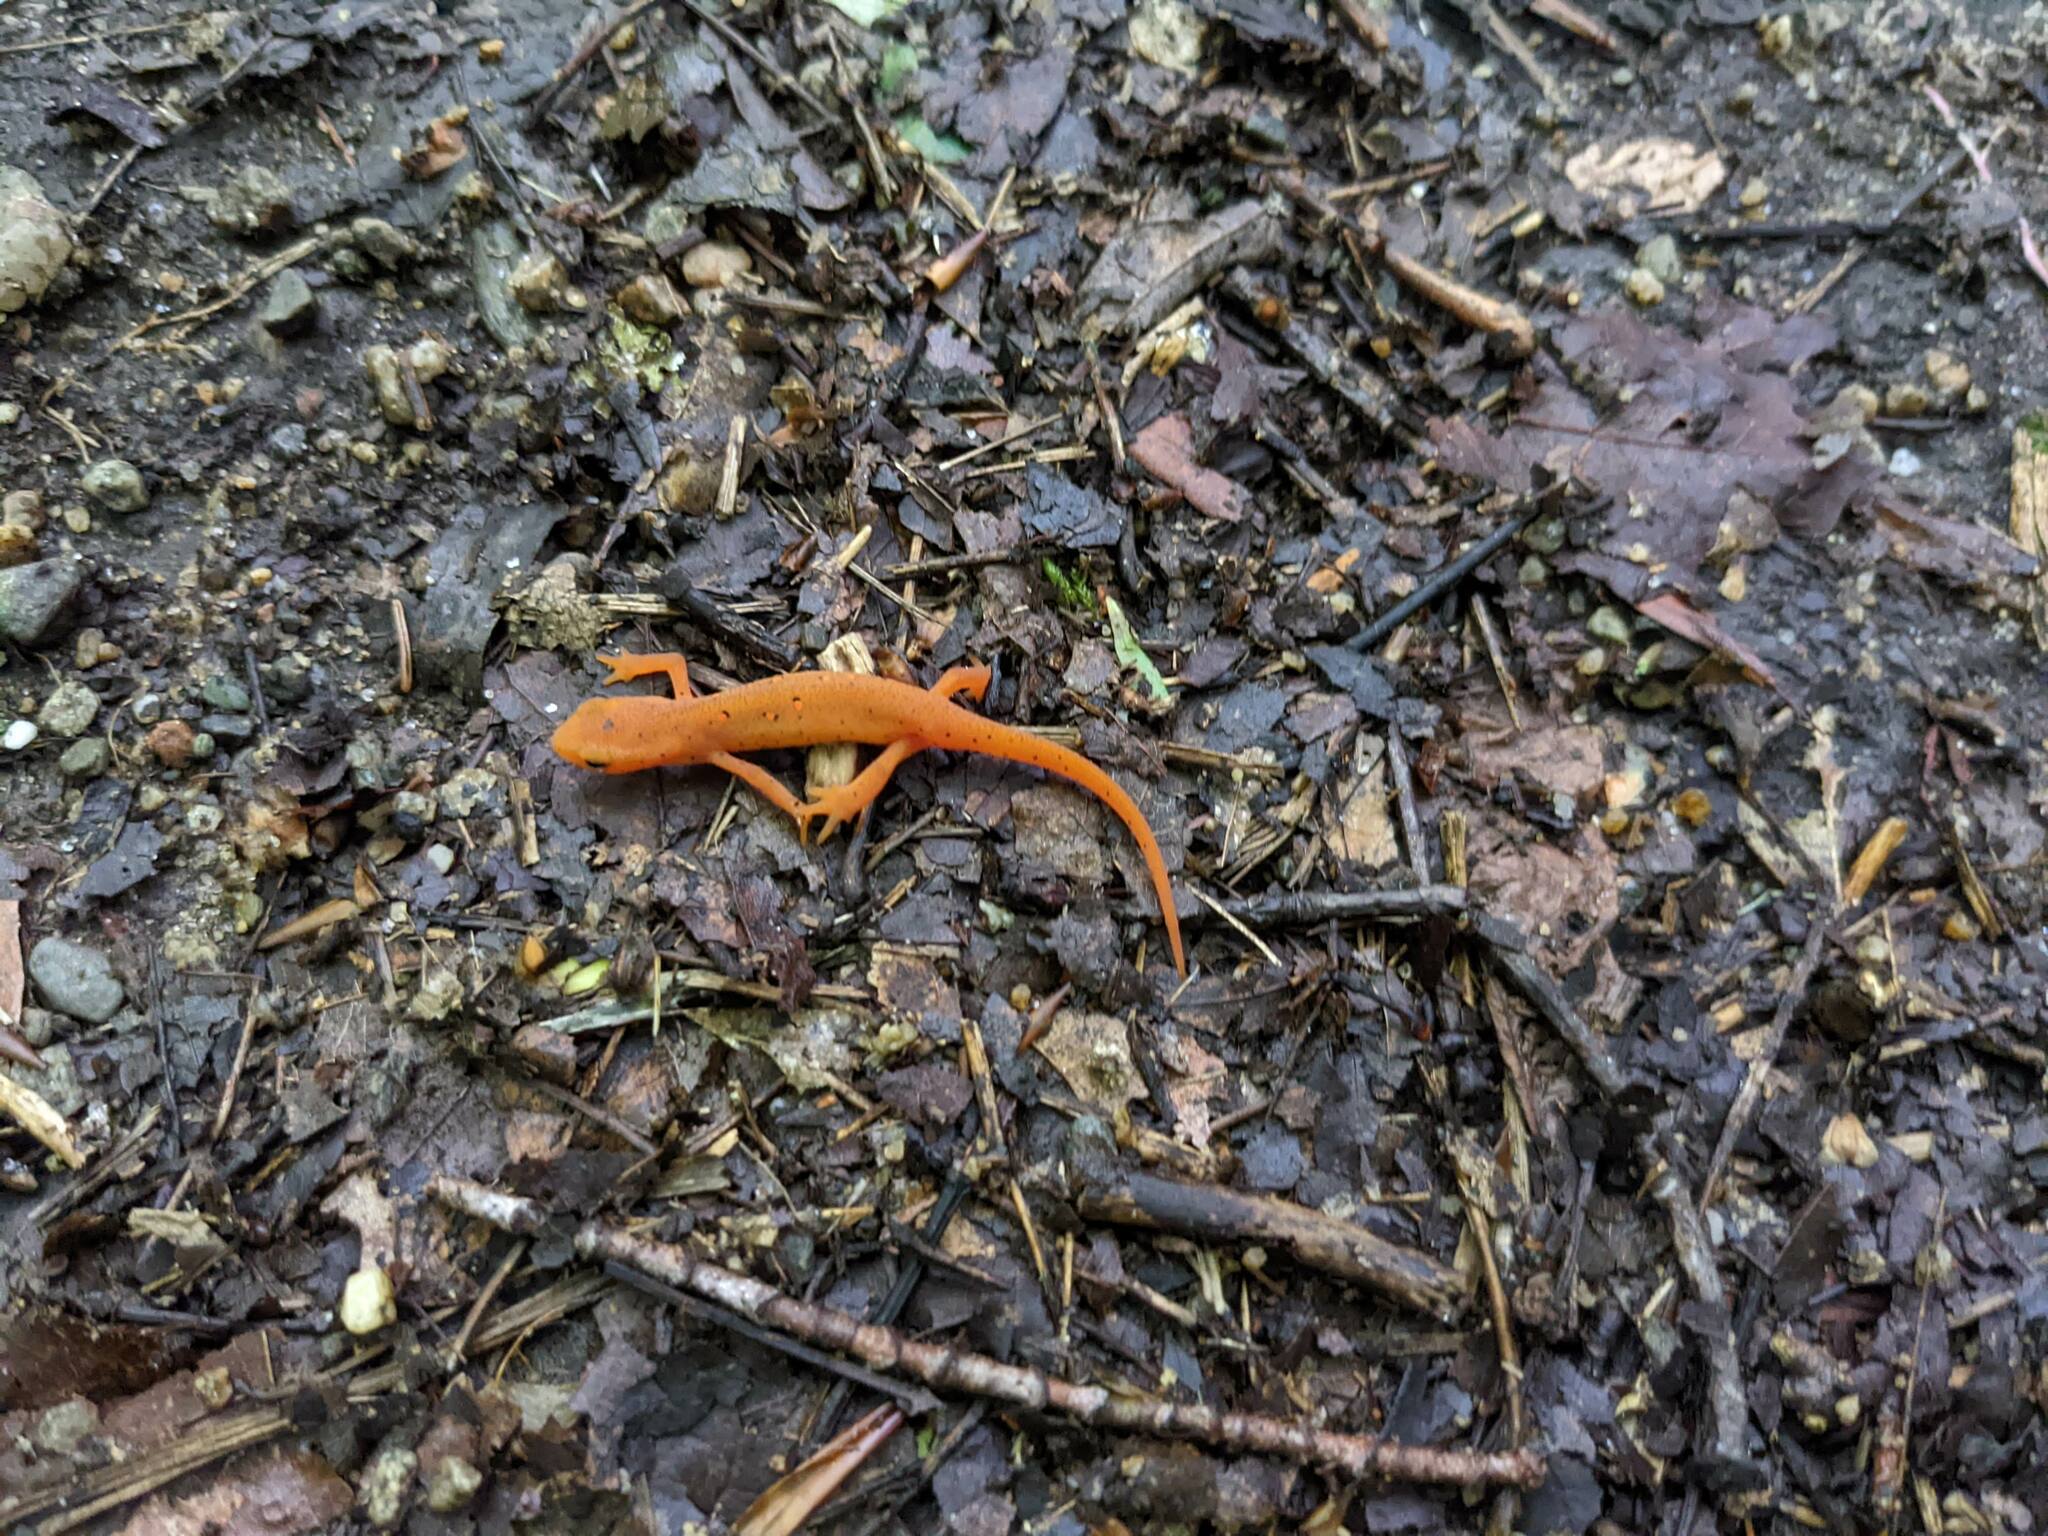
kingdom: Animalia
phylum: Chordata
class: Amphibia
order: Caudata
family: Salamandridae
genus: Notophthalmus
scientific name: Notophthalmus viridescens
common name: Eastern newt
